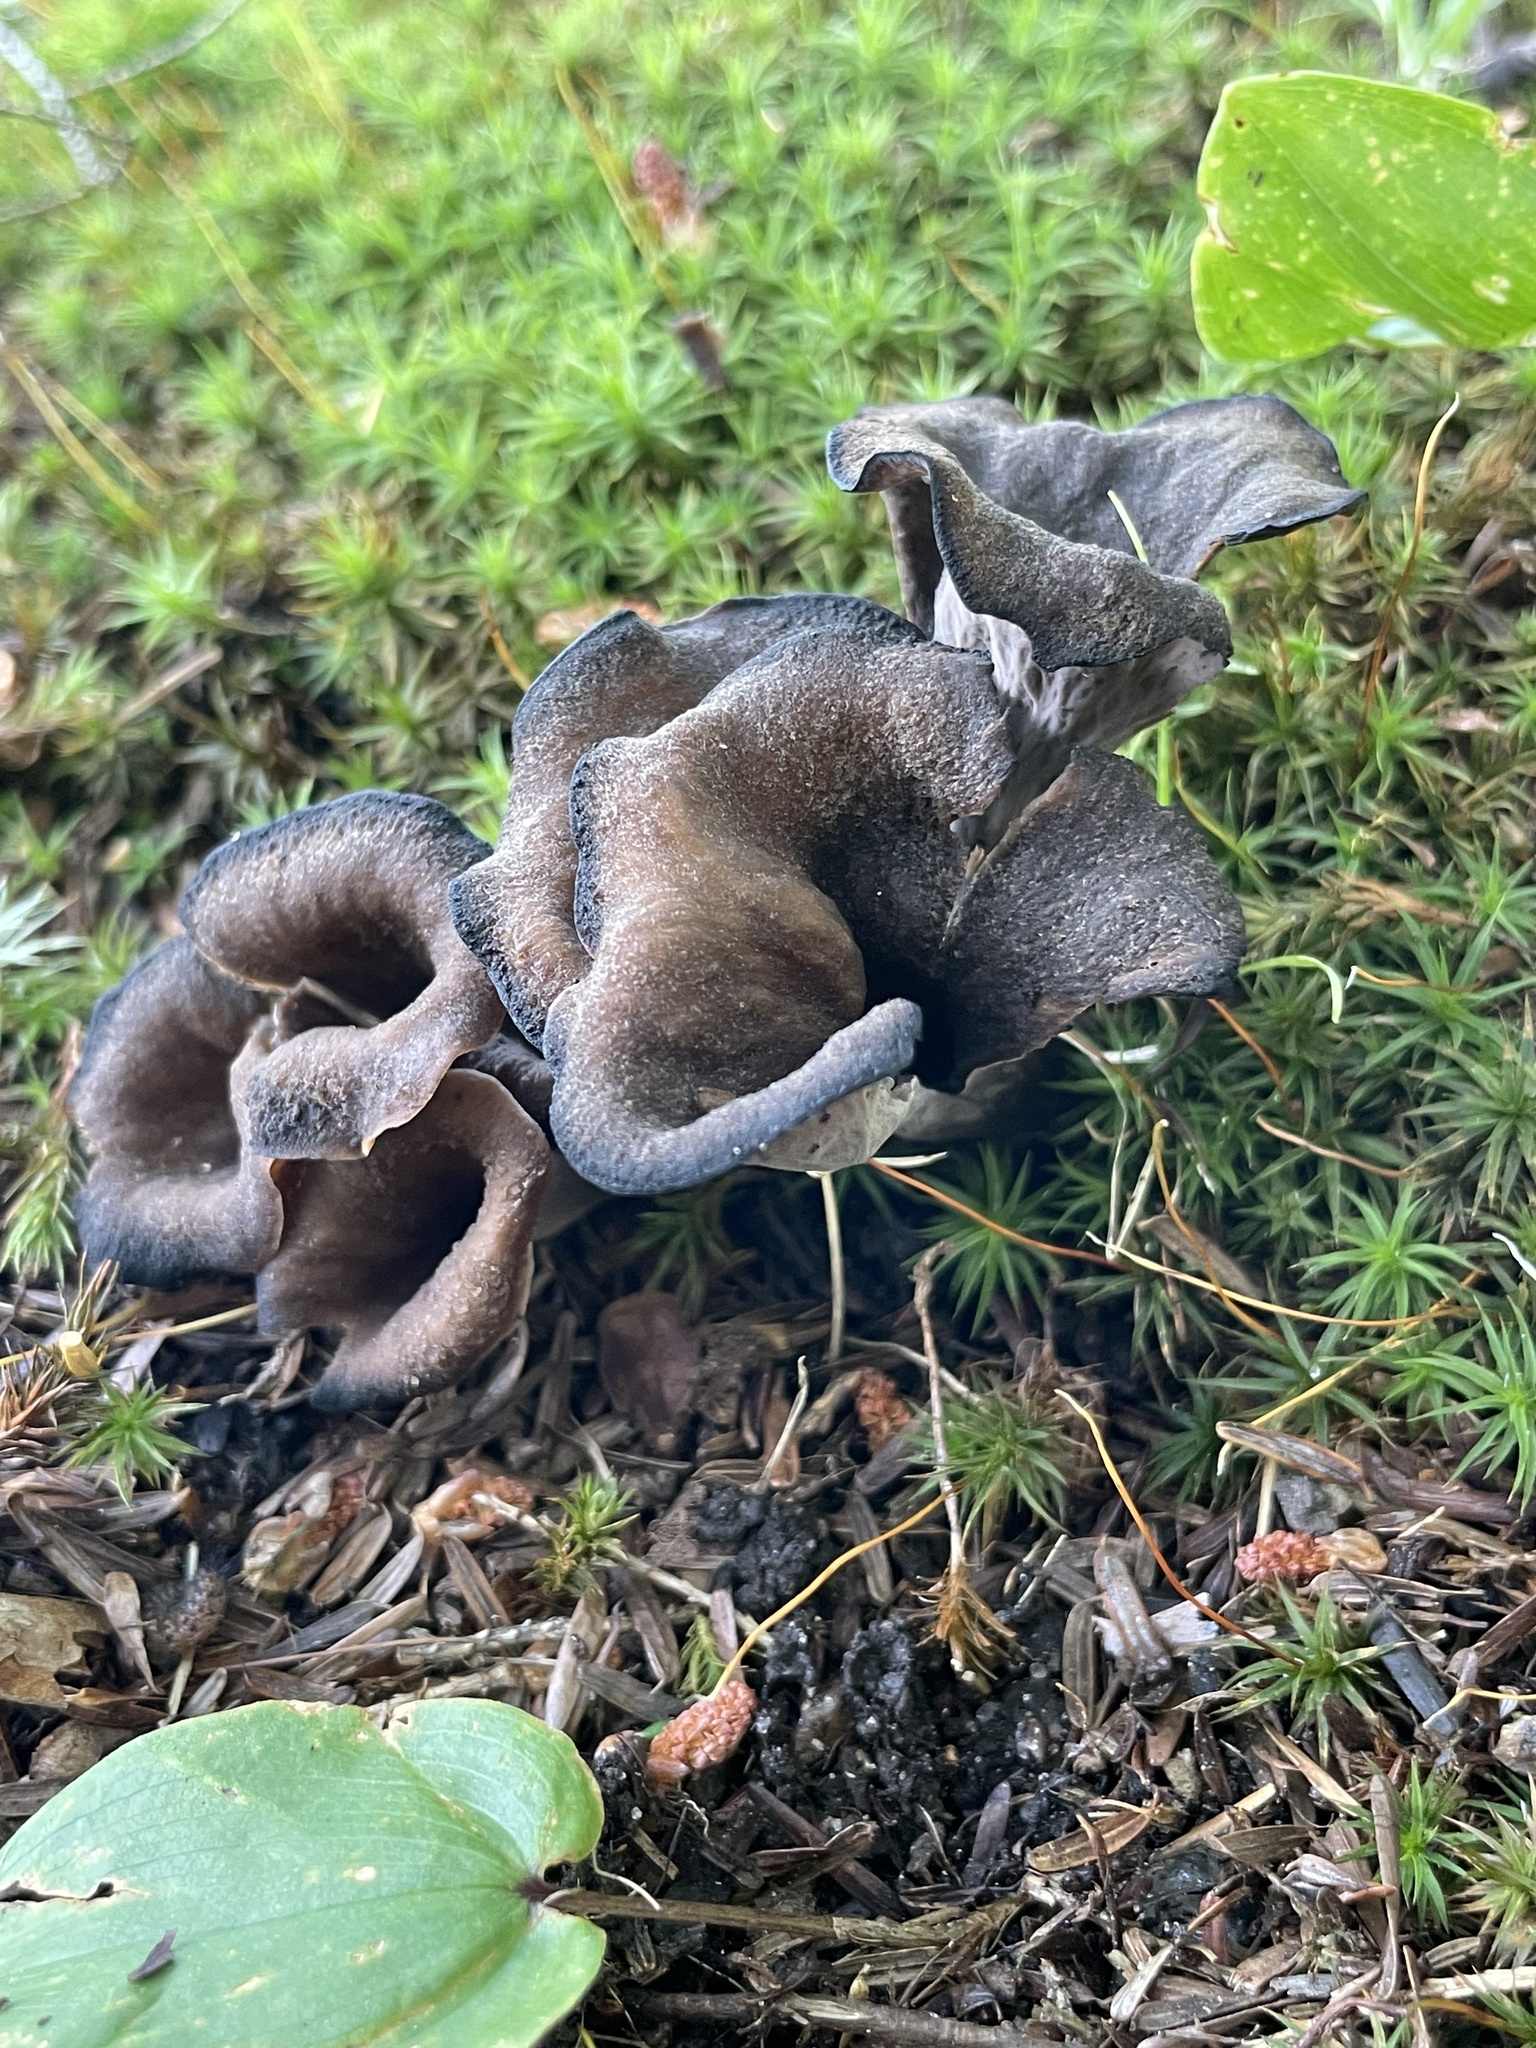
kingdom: Fungi
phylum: Basidiomycota
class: Agaricomycetes
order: Cantharellales
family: Hydnaceae
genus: Craterellus
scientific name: Craterellus cornucopioides
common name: Horn of plenty
